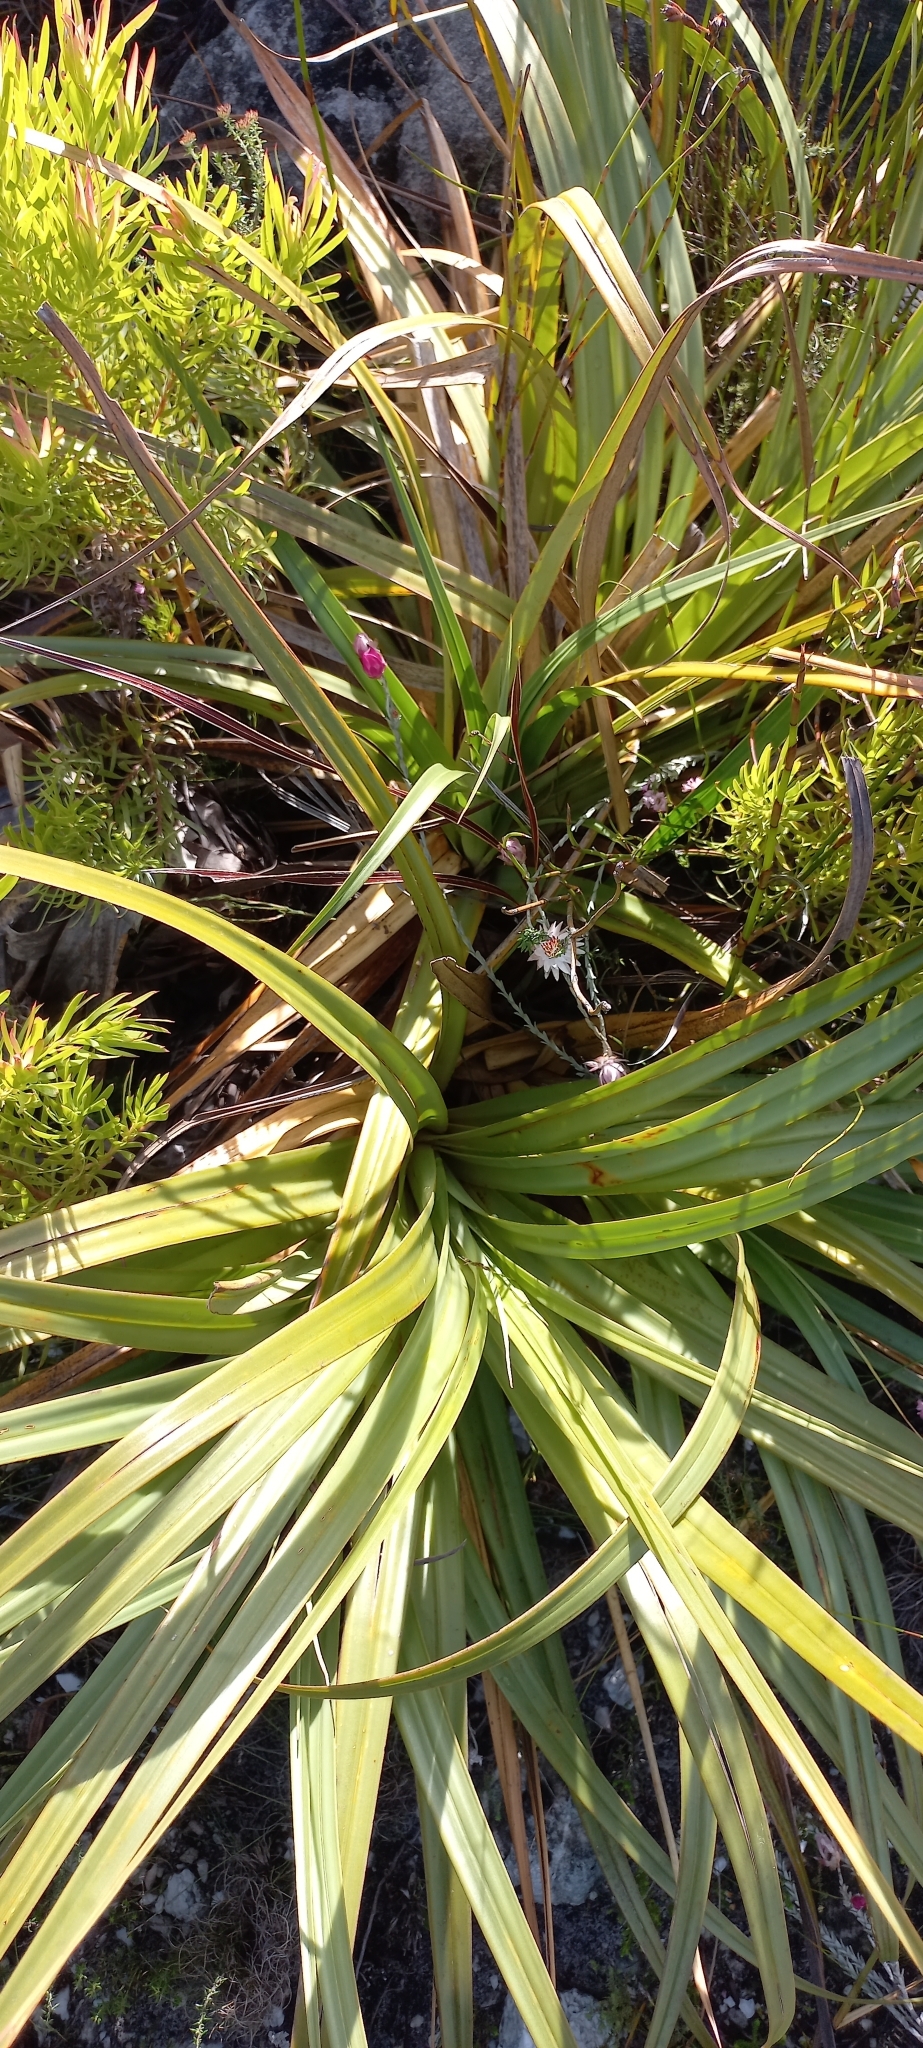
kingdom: Plantae
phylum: Tracheophyta
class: Liliopsida
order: Poales
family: Cyperaceae
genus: Tetraria
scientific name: Tetraria thermalis
